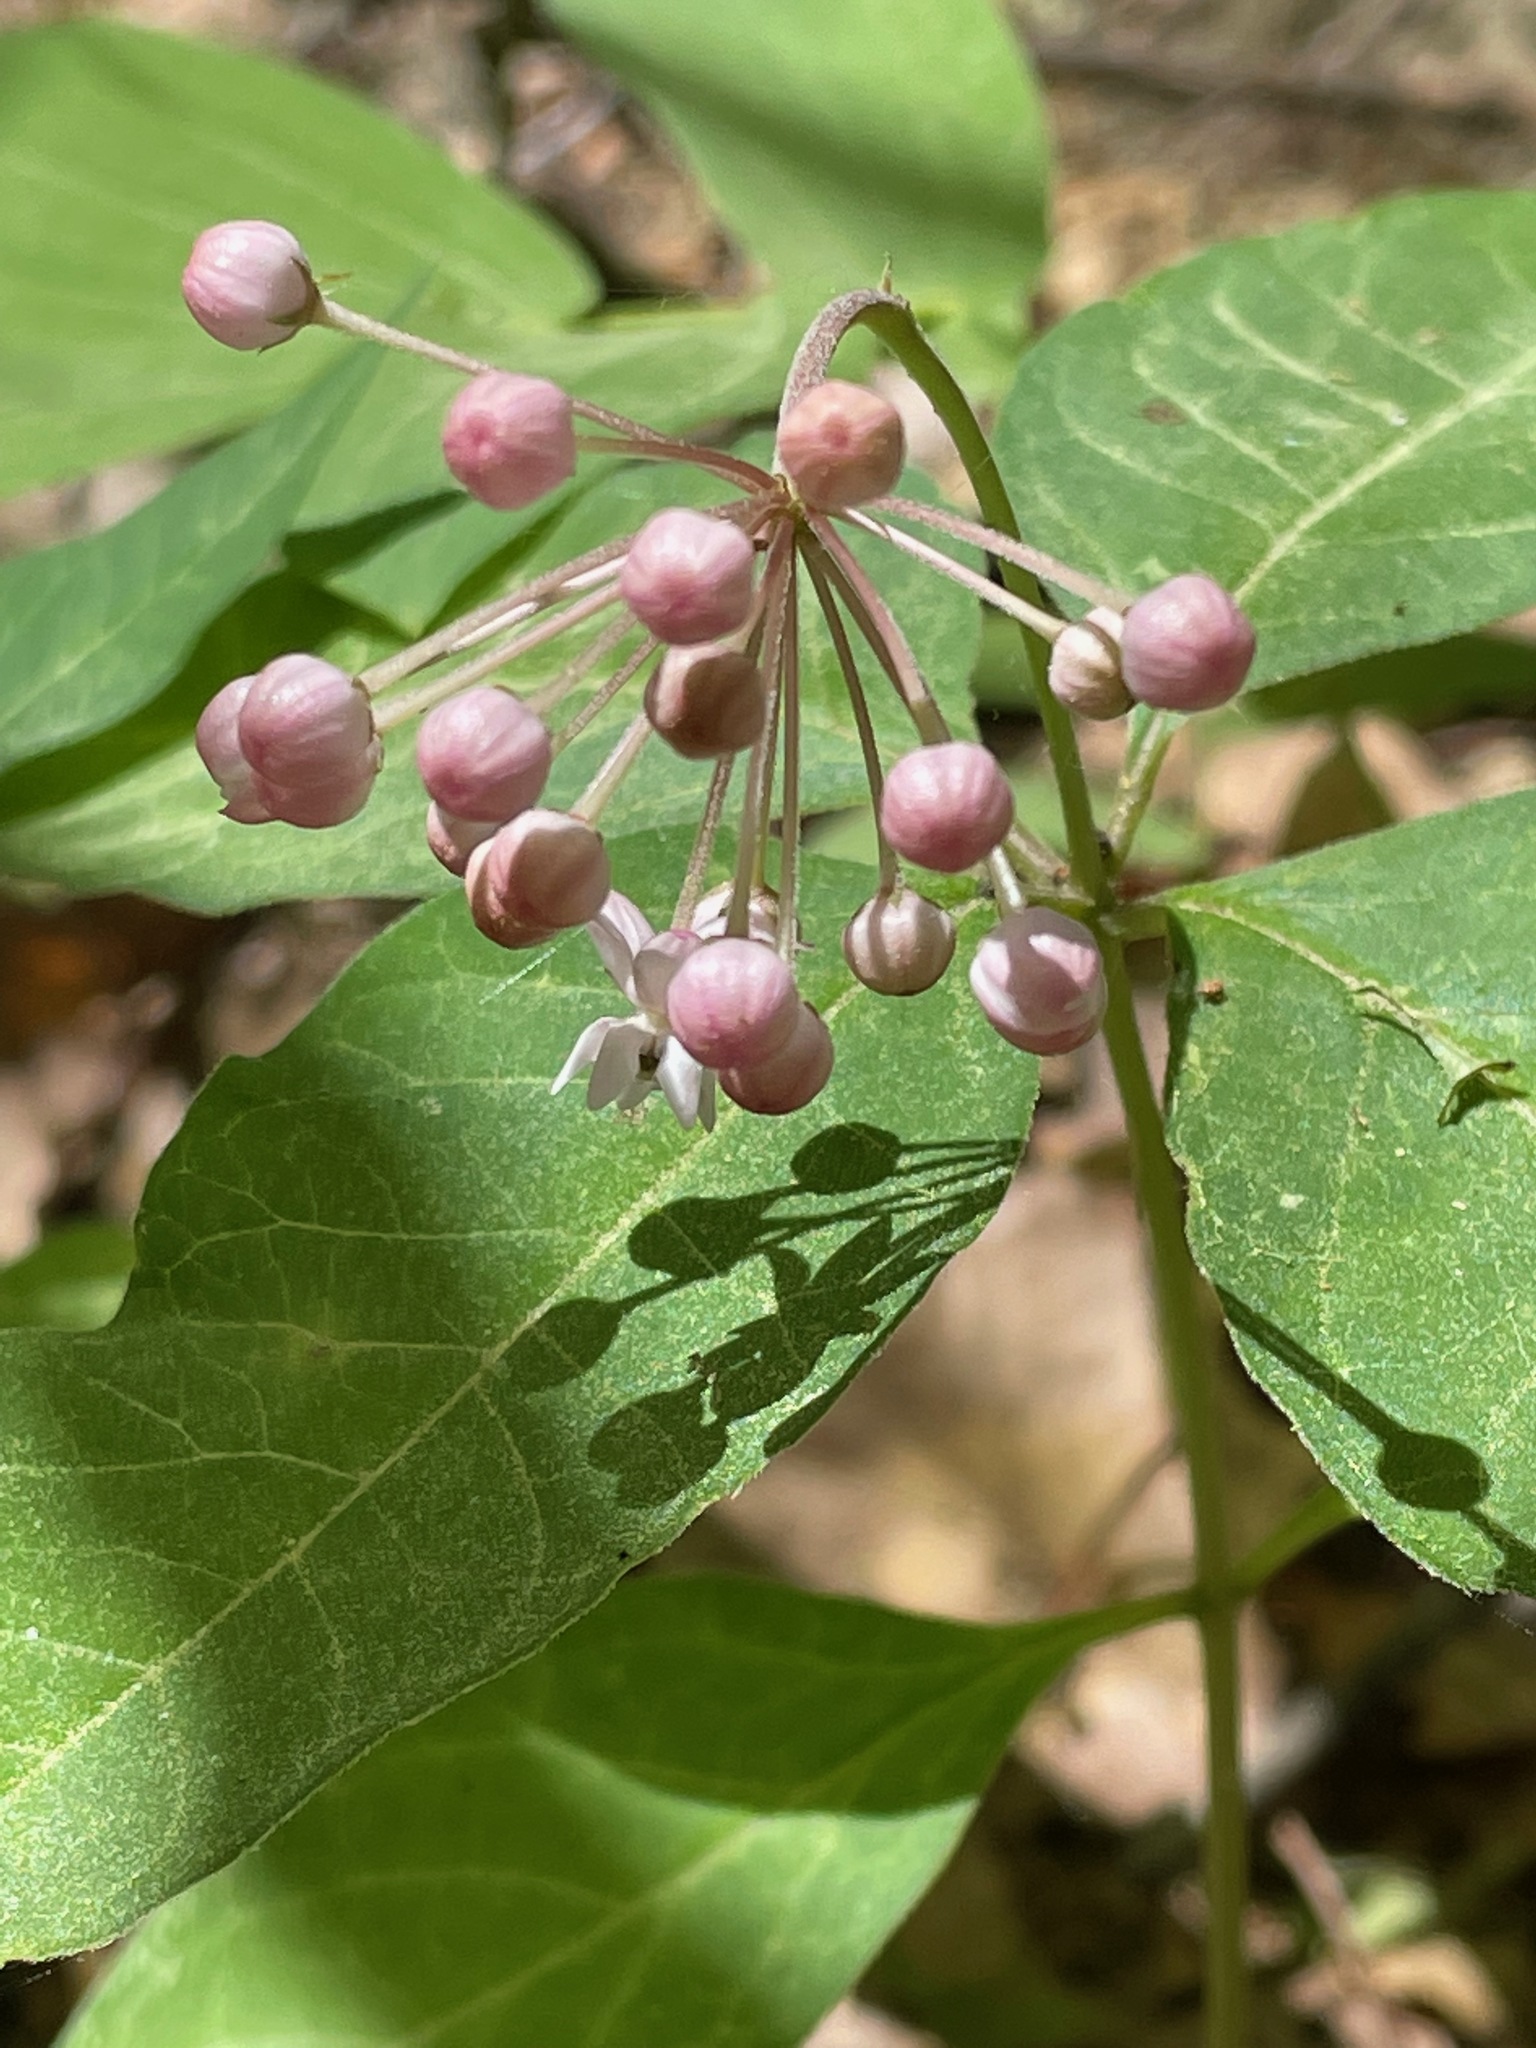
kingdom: Plantae
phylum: Tracheophyta
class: Magnoliopsida
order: Gentianales
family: Apocynaceae
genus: Asclepias
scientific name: Asclepias quadrifolia
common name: Whorled milkweed
